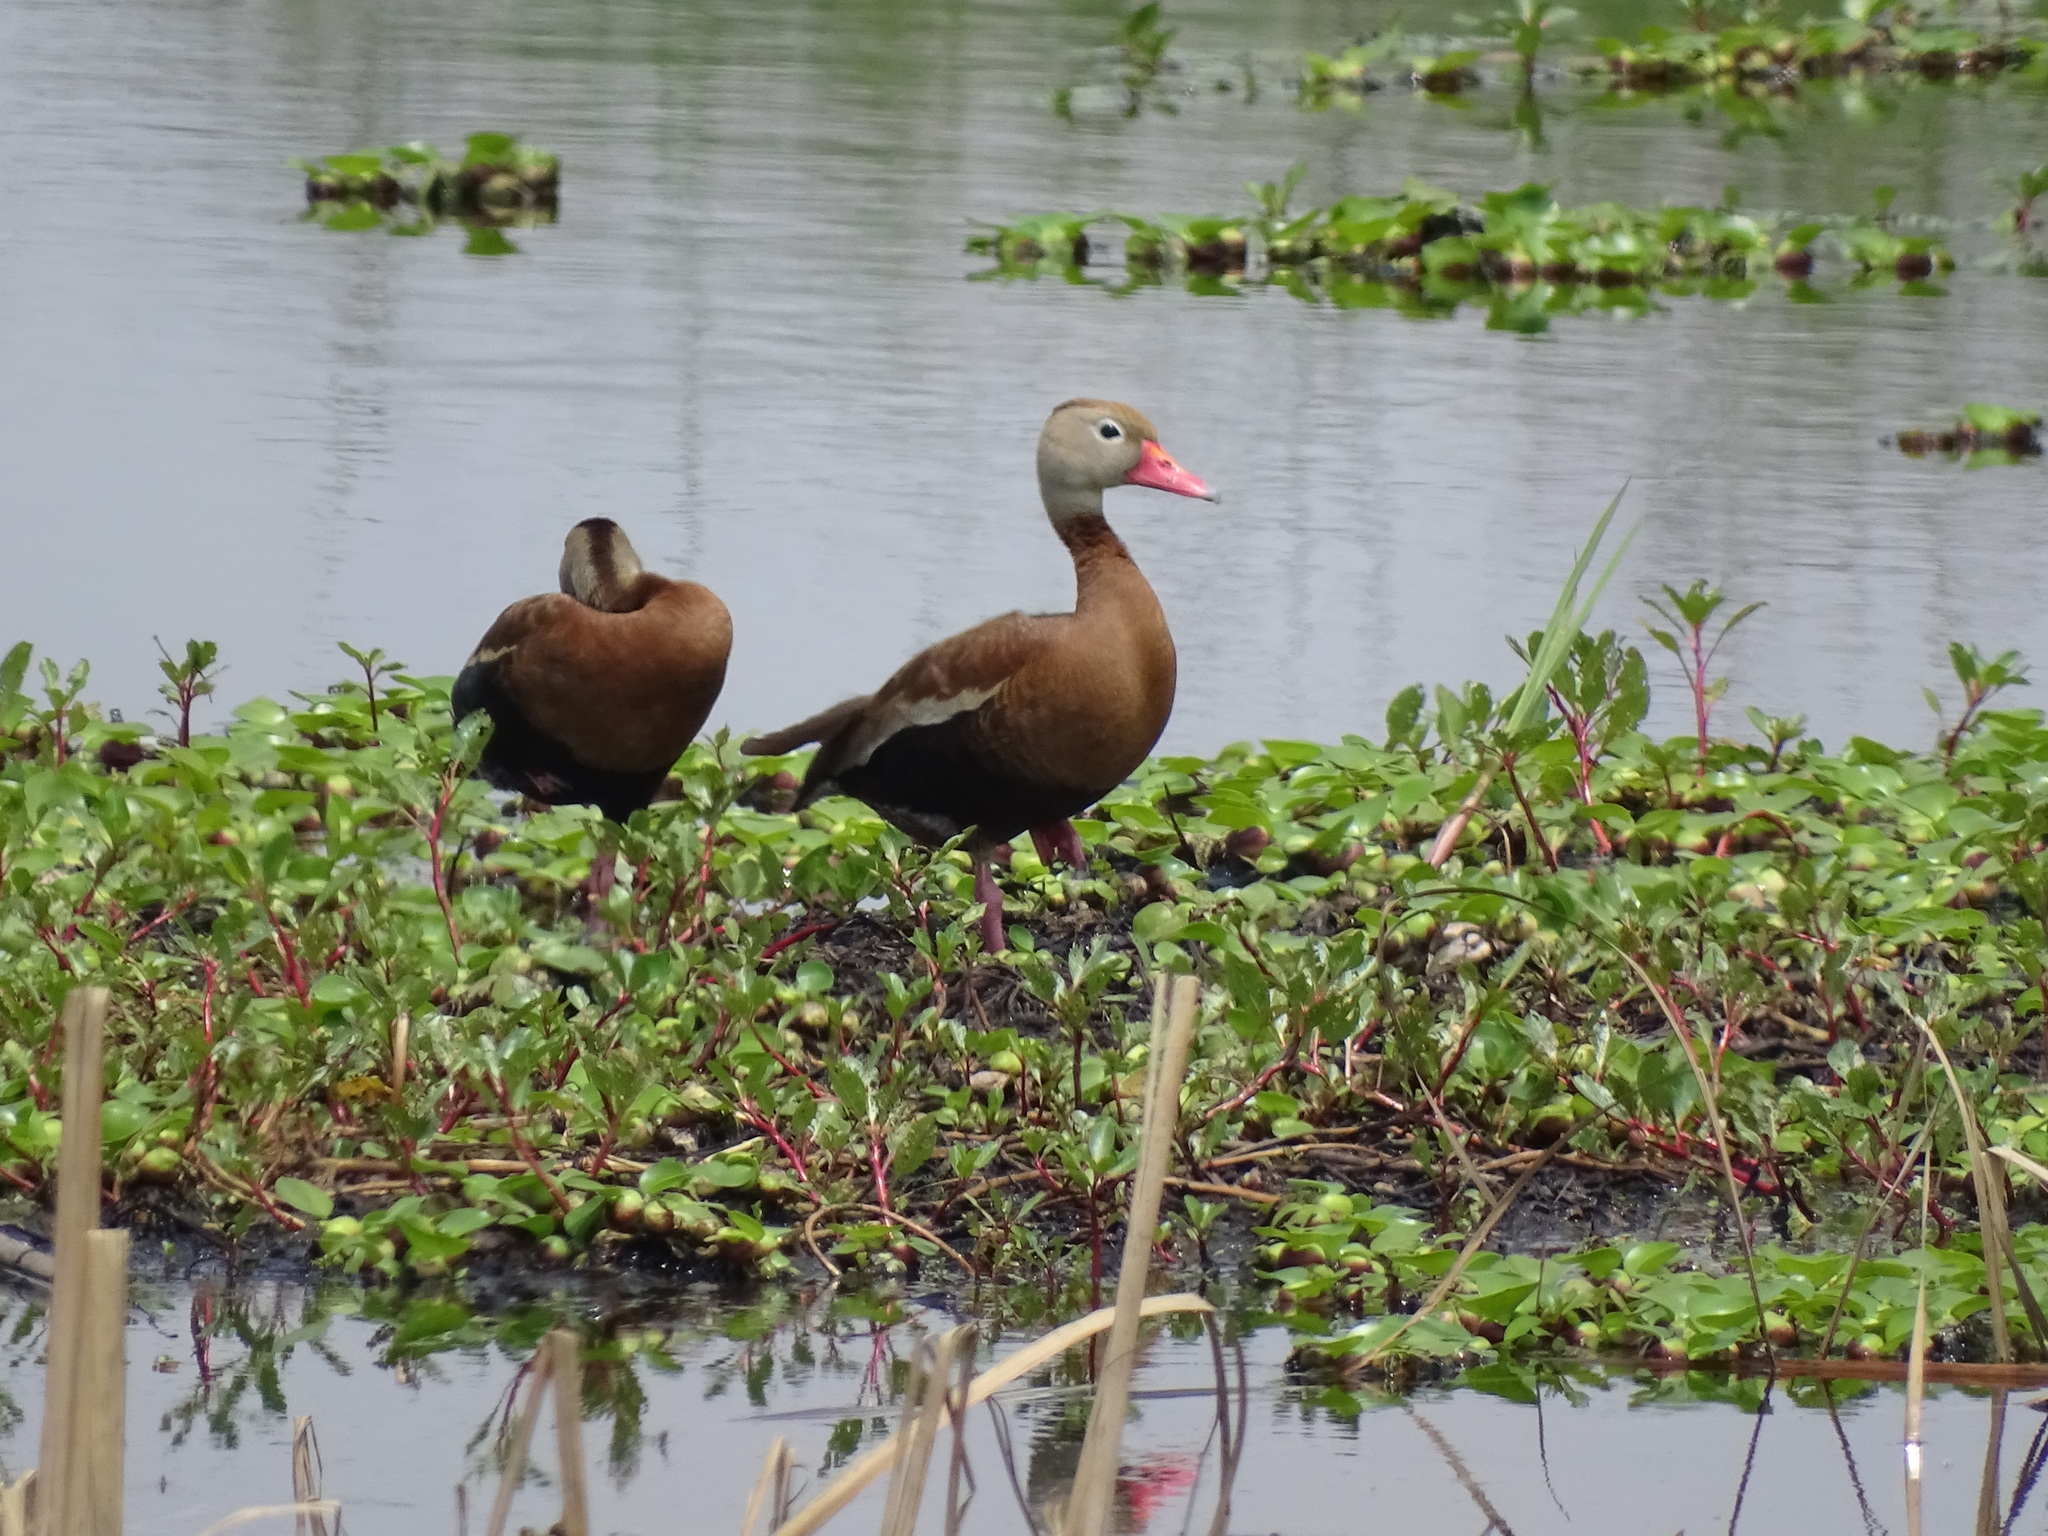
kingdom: Animalia
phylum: Chordata
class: Aves
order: Anseriformes
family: Anatidae
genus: Dendrocygna
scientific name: Dendrocygna autumnalis
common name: Black-bellied whistling duck
